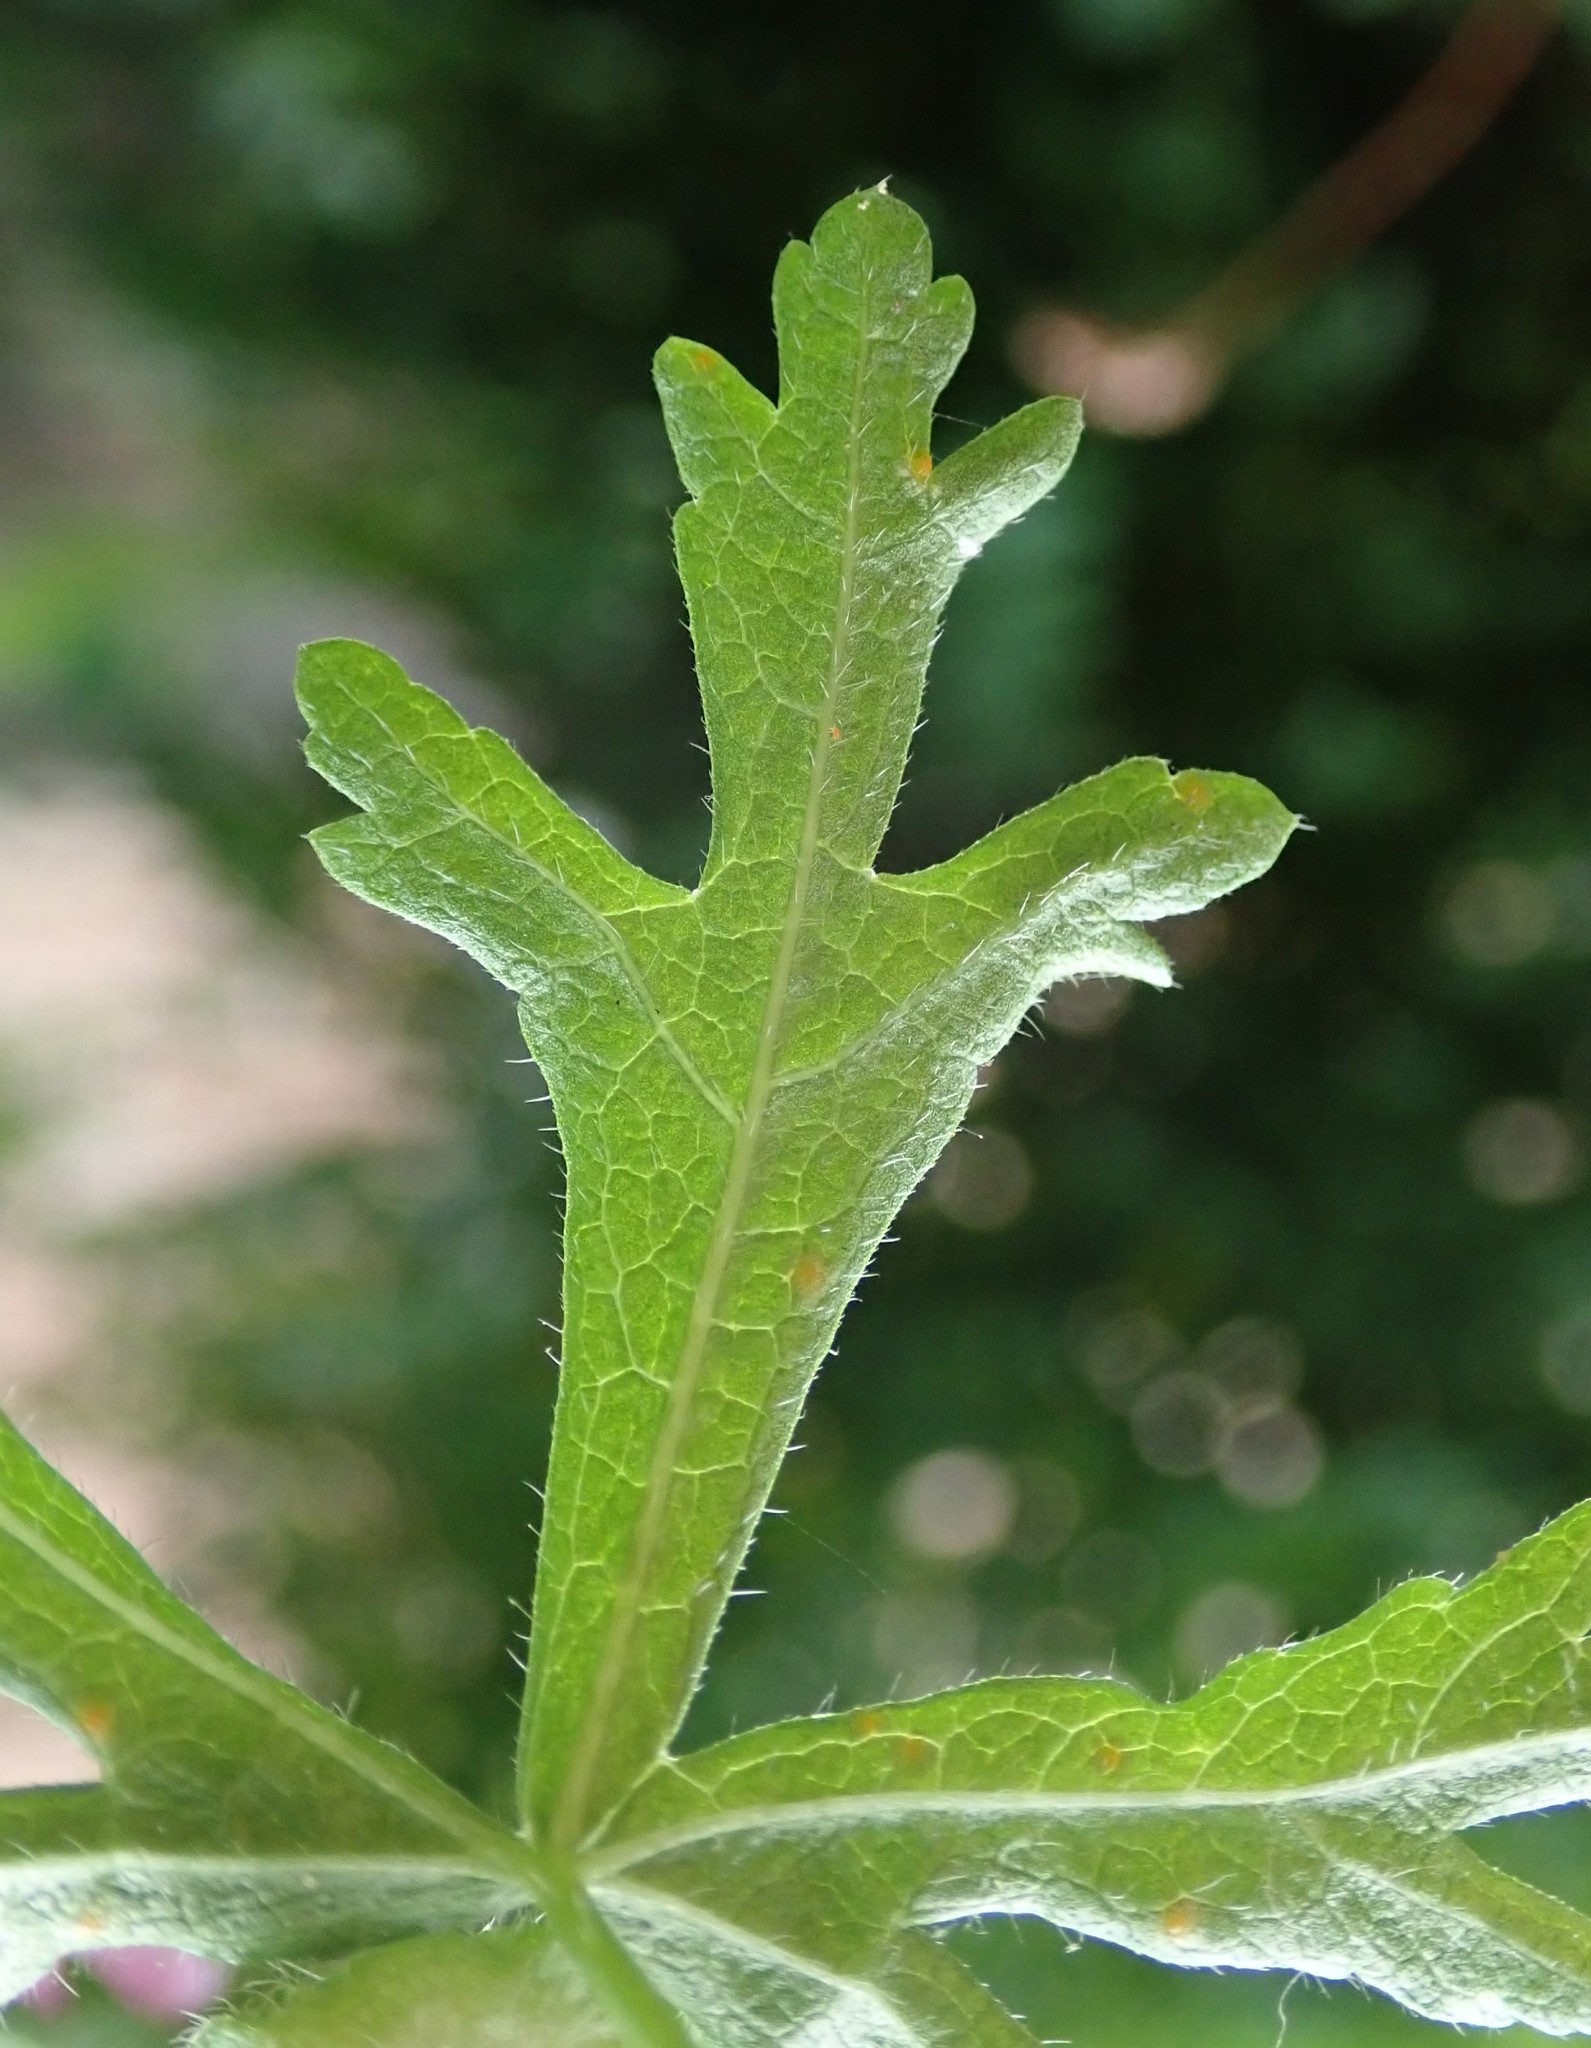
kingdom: Plantae
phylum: Tracheophyta
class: Magnoliopsida
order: Malvales
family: Malvaceae
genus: Malva
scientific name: Malva moschata
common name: Musk mallow
